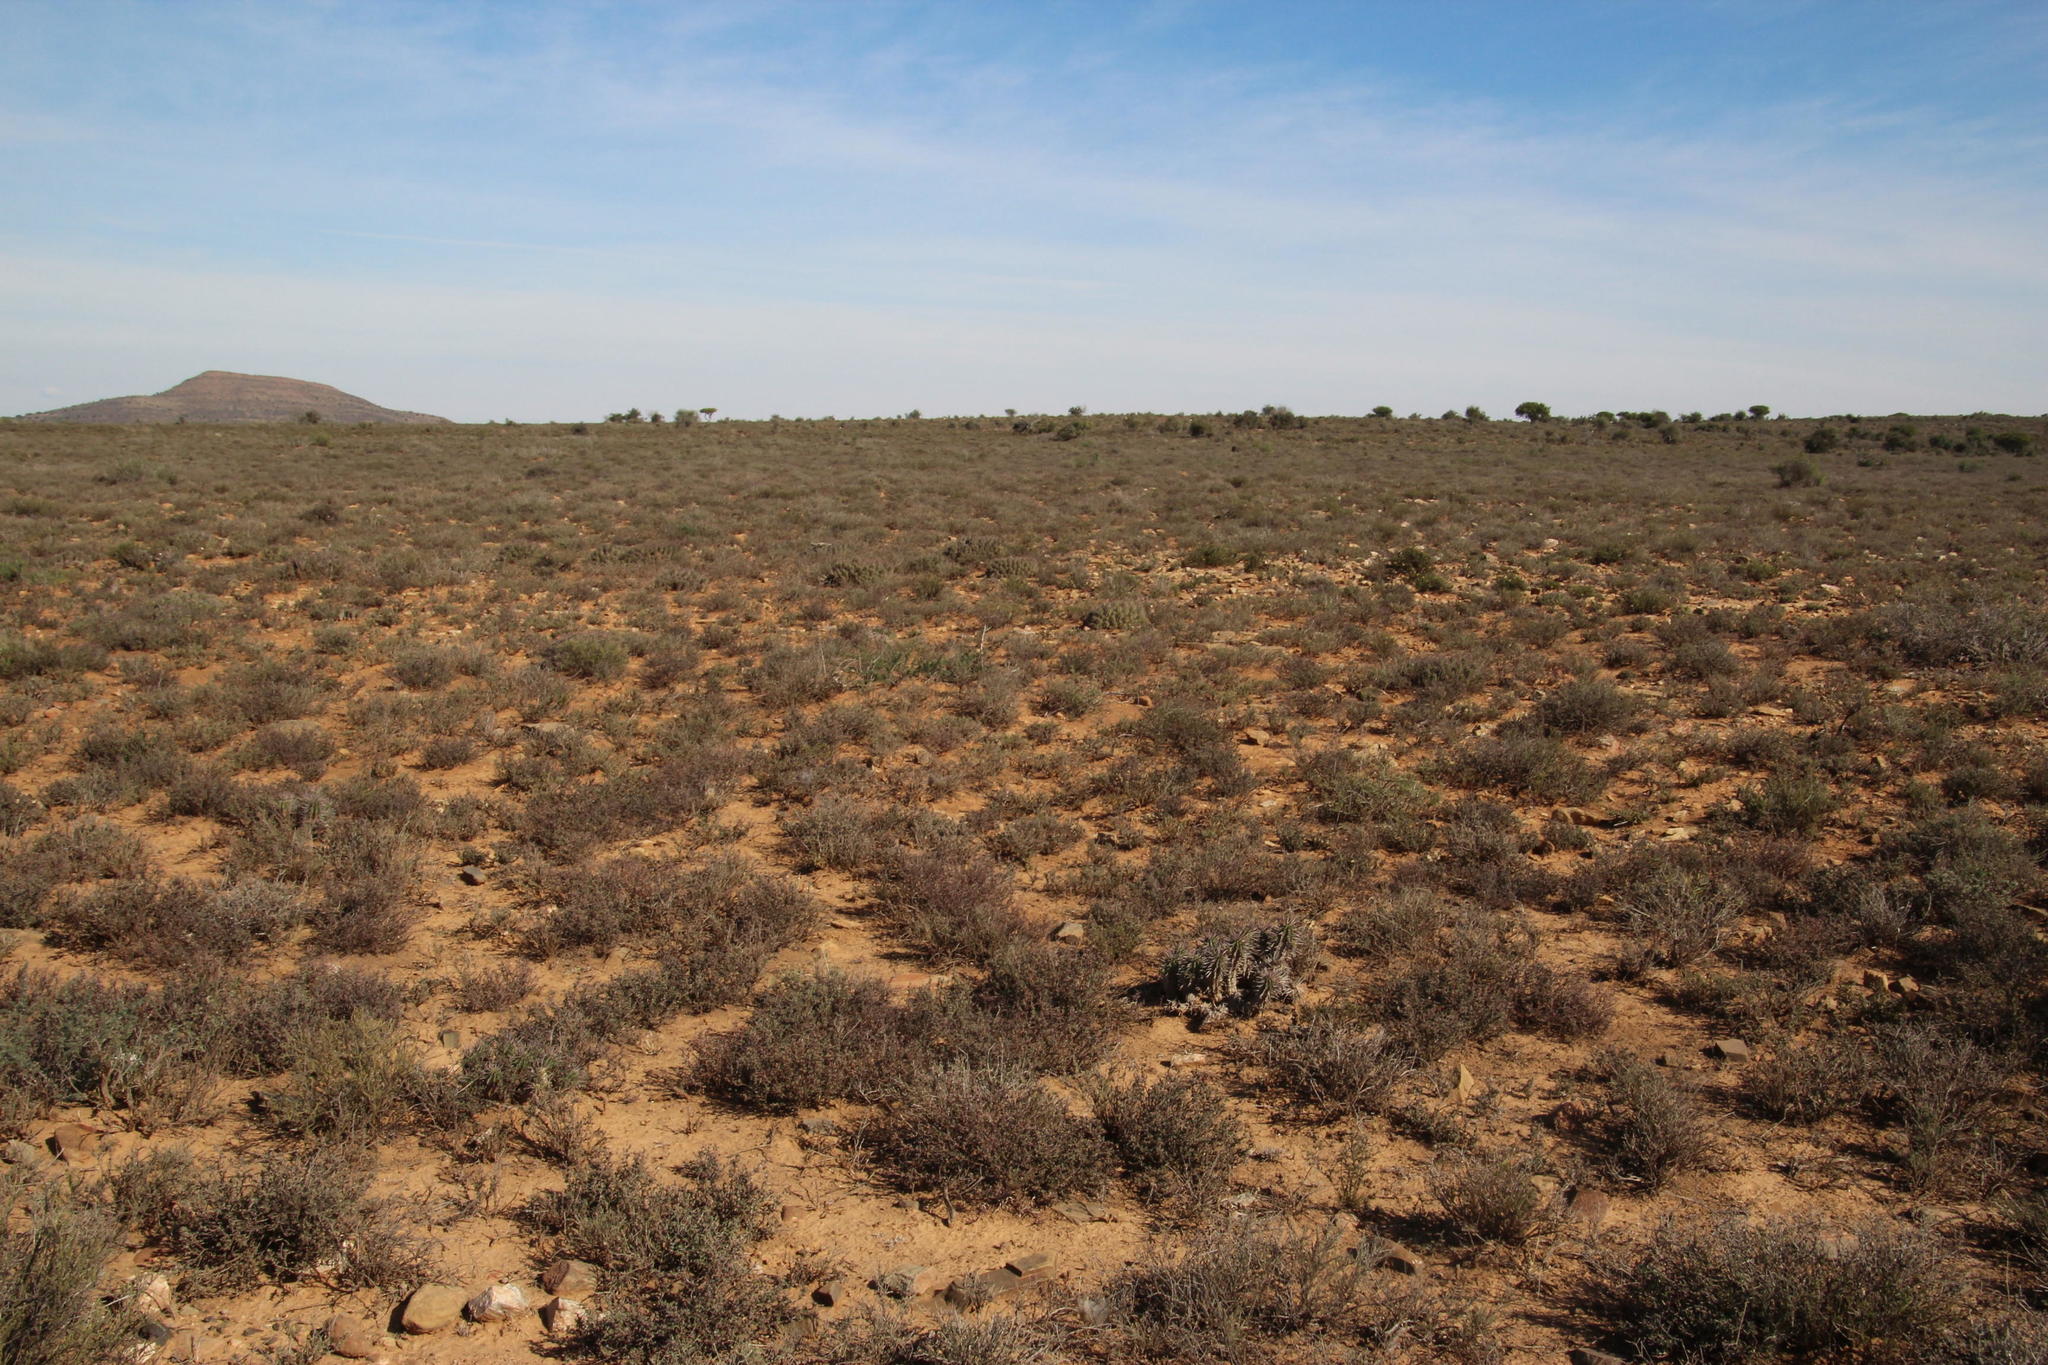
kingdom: Plantae
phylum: Tracheophyta
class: Magnoliopsida
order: Malpighiales
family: Euphorbiaceae
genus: Euphorbia
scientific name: Euphorbia ferox
